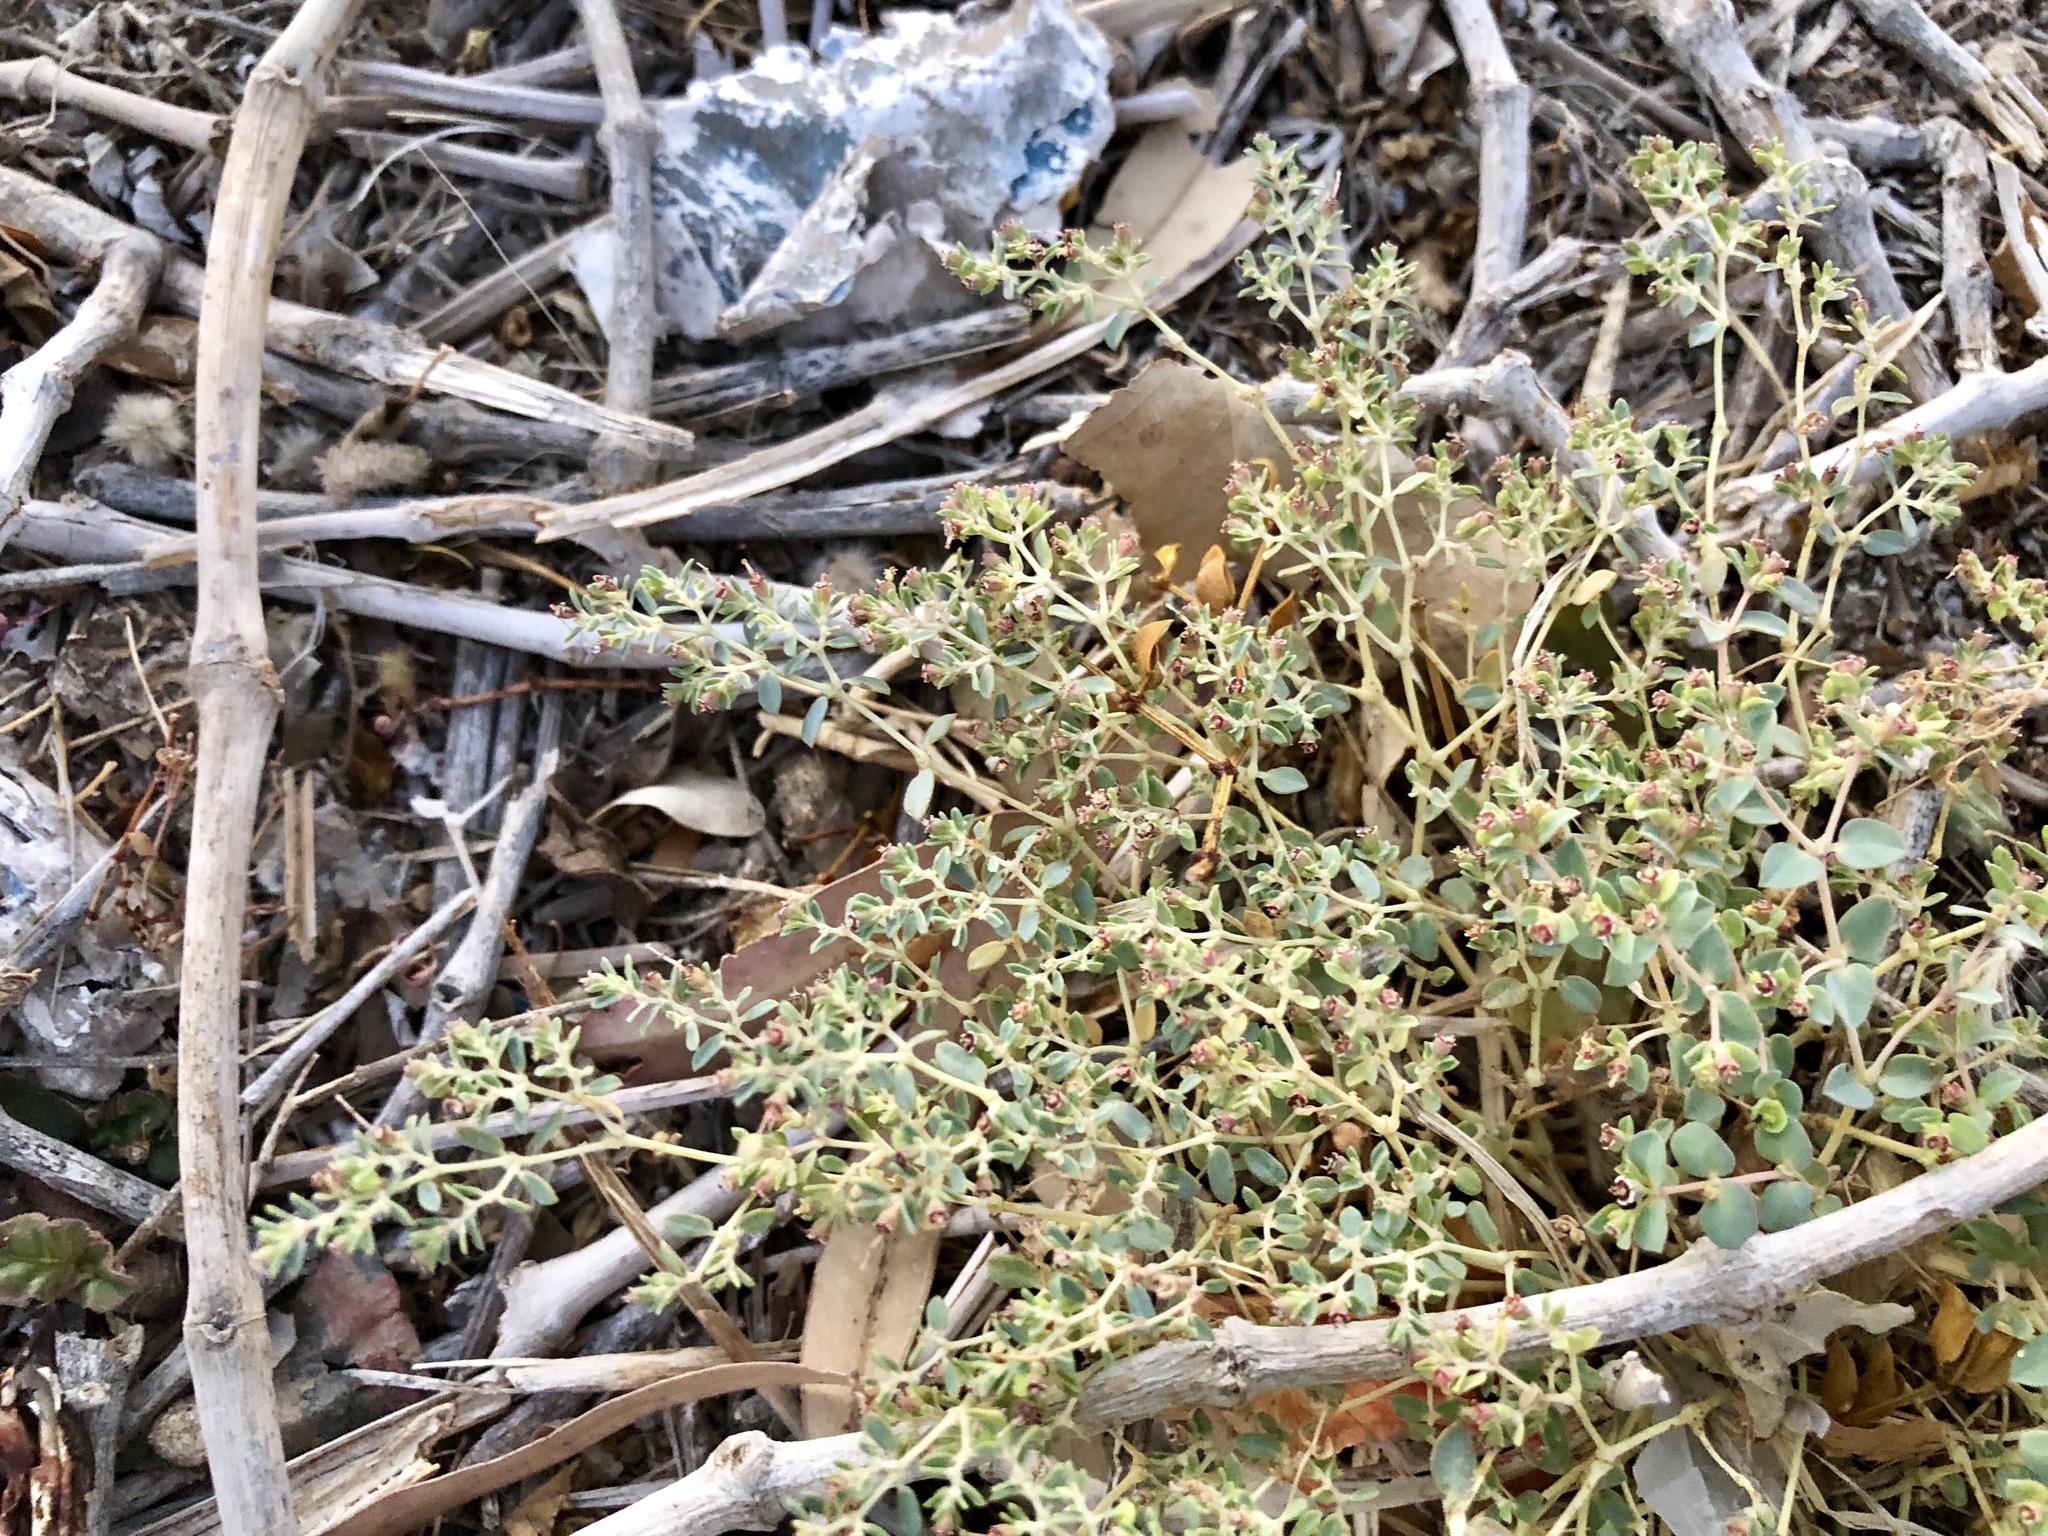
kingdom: Plantae
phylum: Tracheophyta
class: Magnoliopsida
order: Malpighiales
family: Euphorbiaceae
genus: Euphorbia
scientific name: Euphorbia polycarpa
